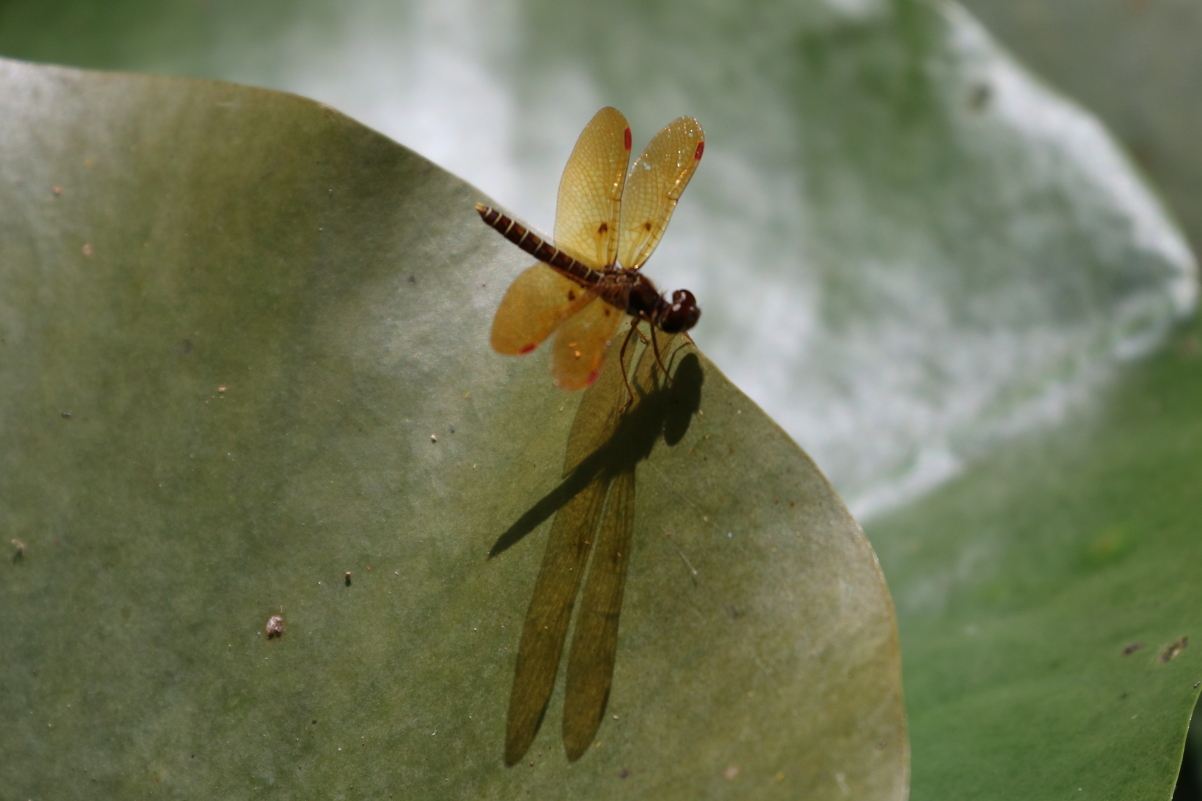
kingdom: Animalia
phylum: Arthropoda
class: Insecta
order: Odonata
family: Libellulidae
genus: Perithemis
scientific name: Perithemis tenera
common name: Eastern amberwing
